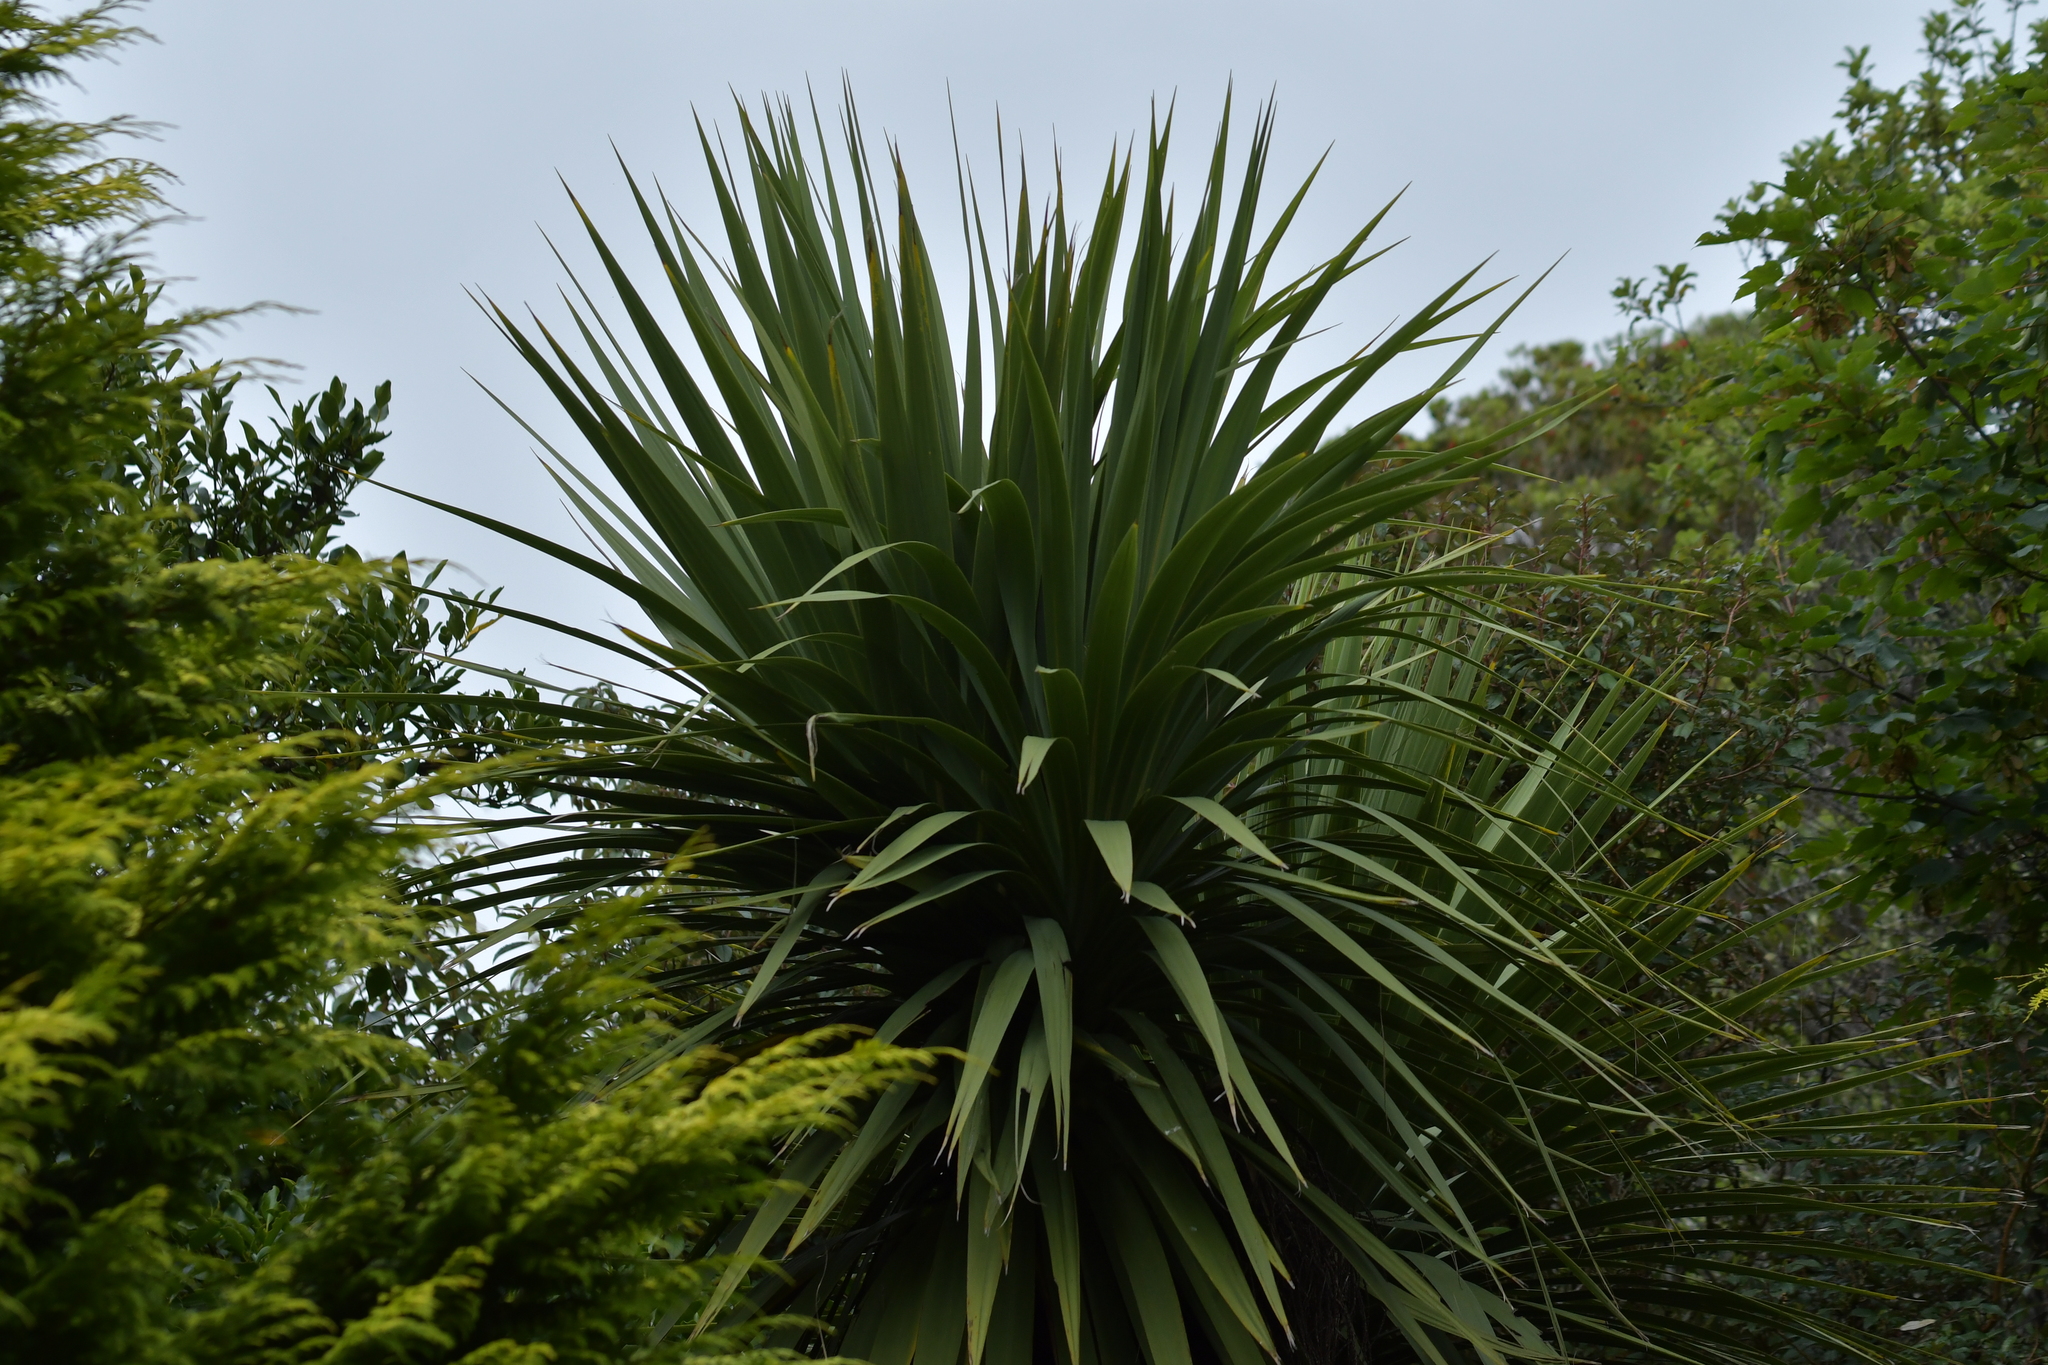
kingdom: Plantae
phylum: Tracheophyta
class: Liliopsida
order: Asparagales
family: Asparagaceae
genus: Cordyline
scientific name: Cordyline australis
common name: Cabbage-palm
